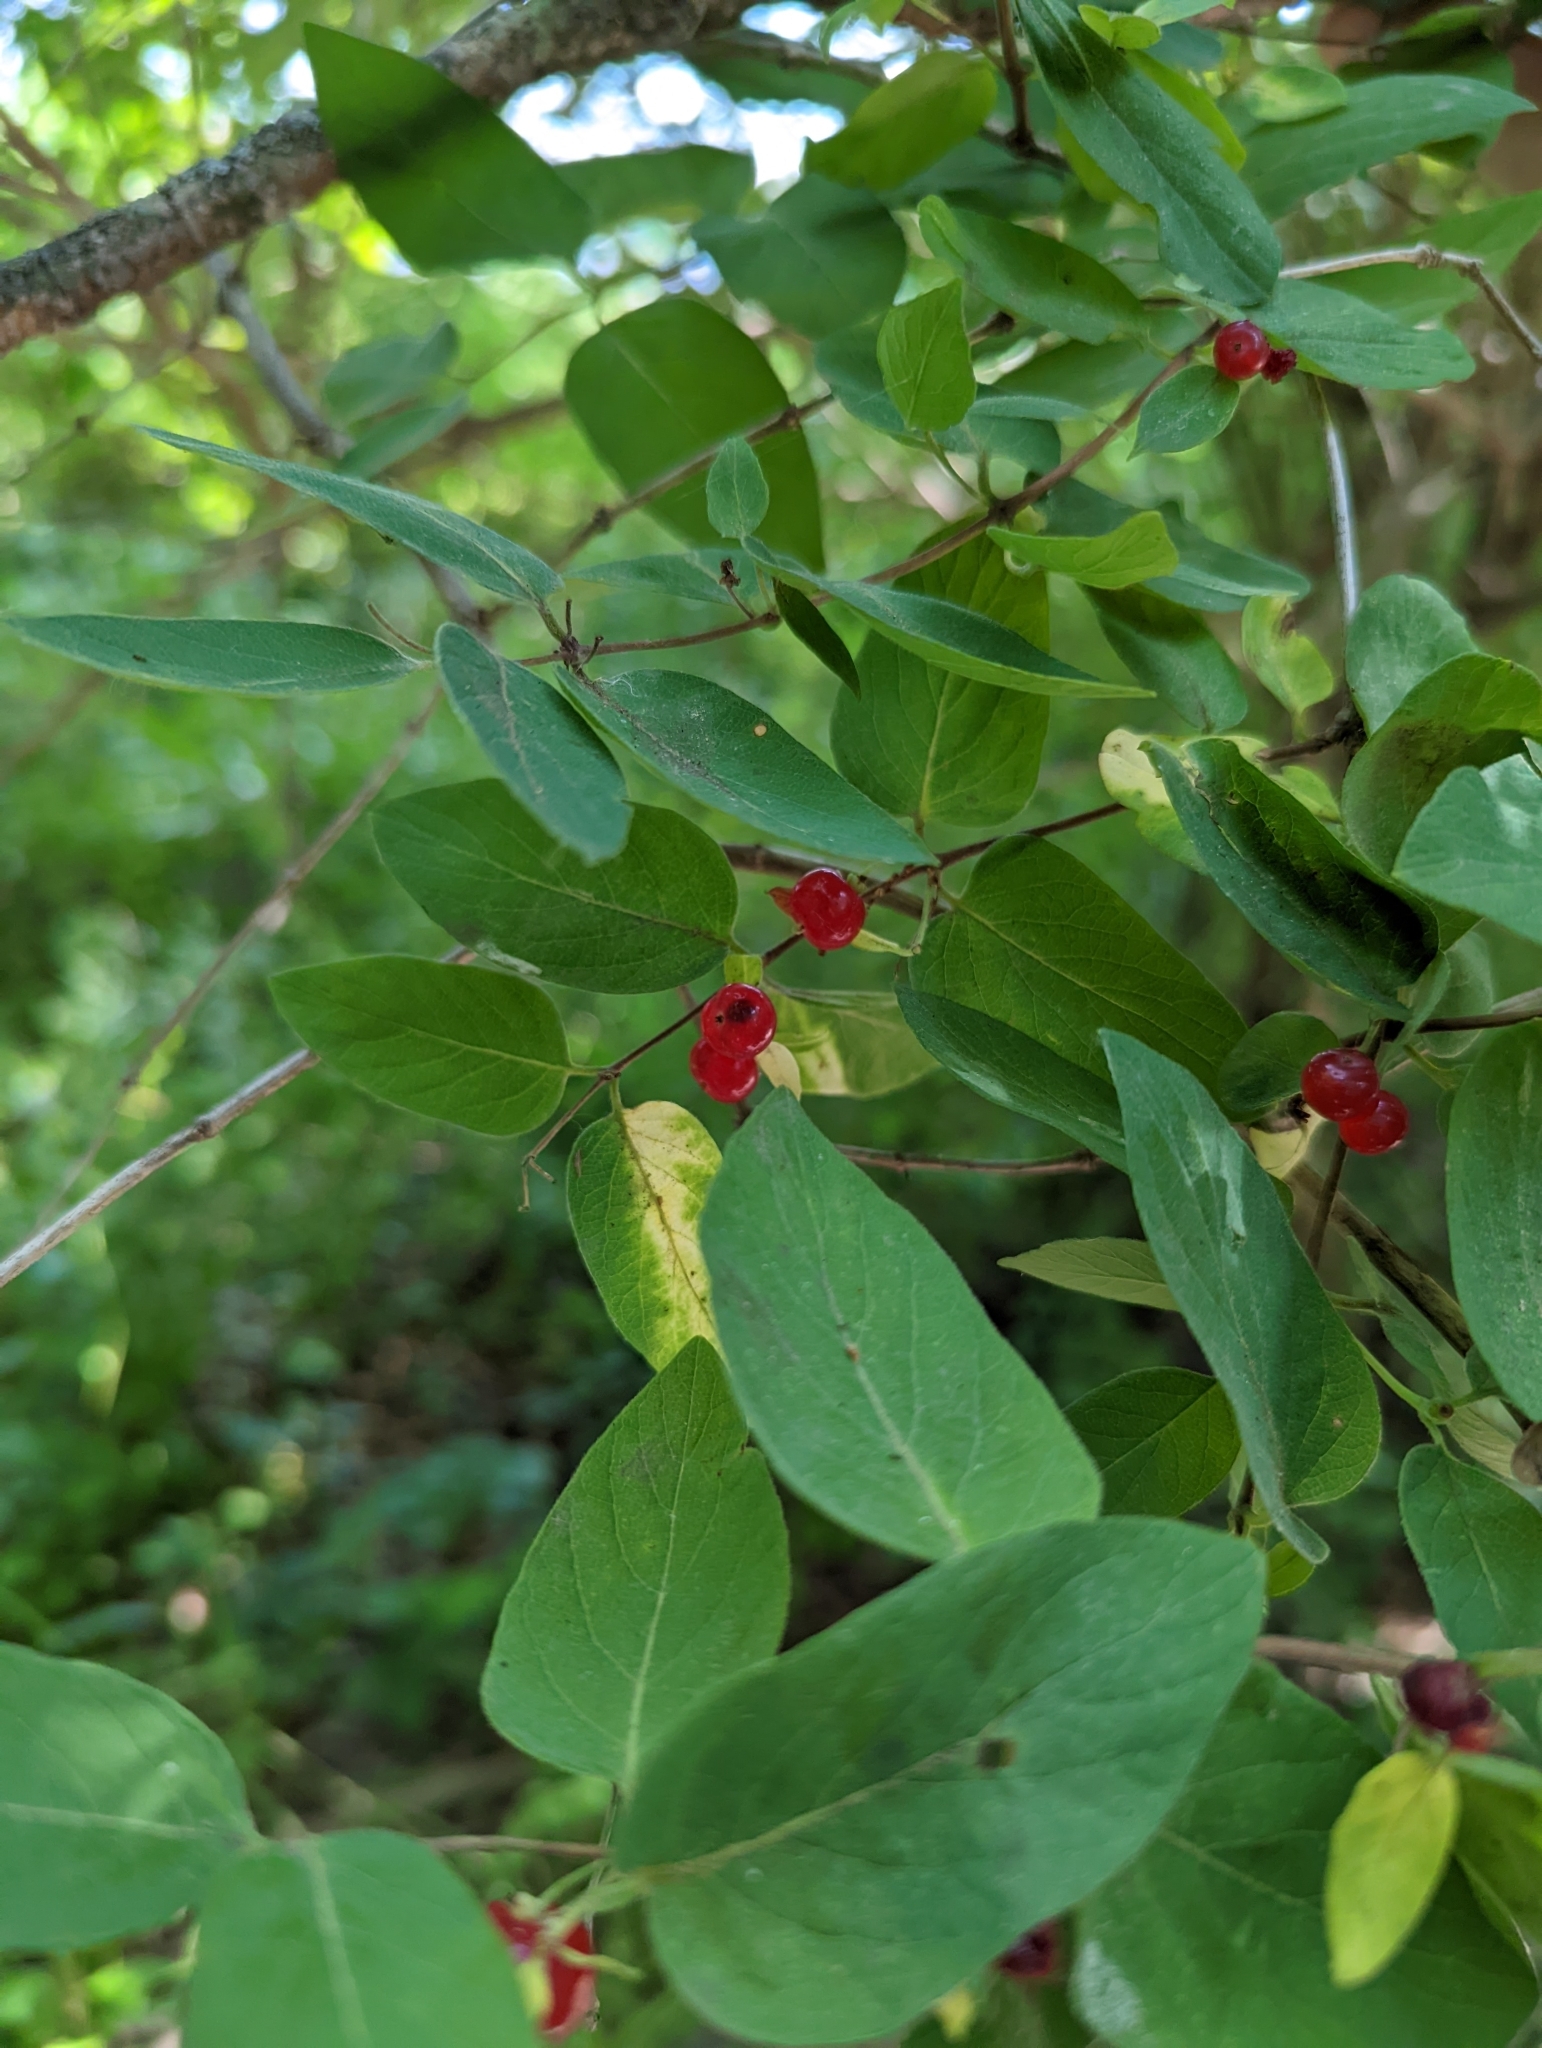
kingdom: Plantae
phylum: Tracheophyta
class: Magnoliopsida
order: Dipsacales
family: Caprifoliaceae
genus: Lonicera
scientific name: Lonicera tatarica
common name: Tatarian honeysuckle
